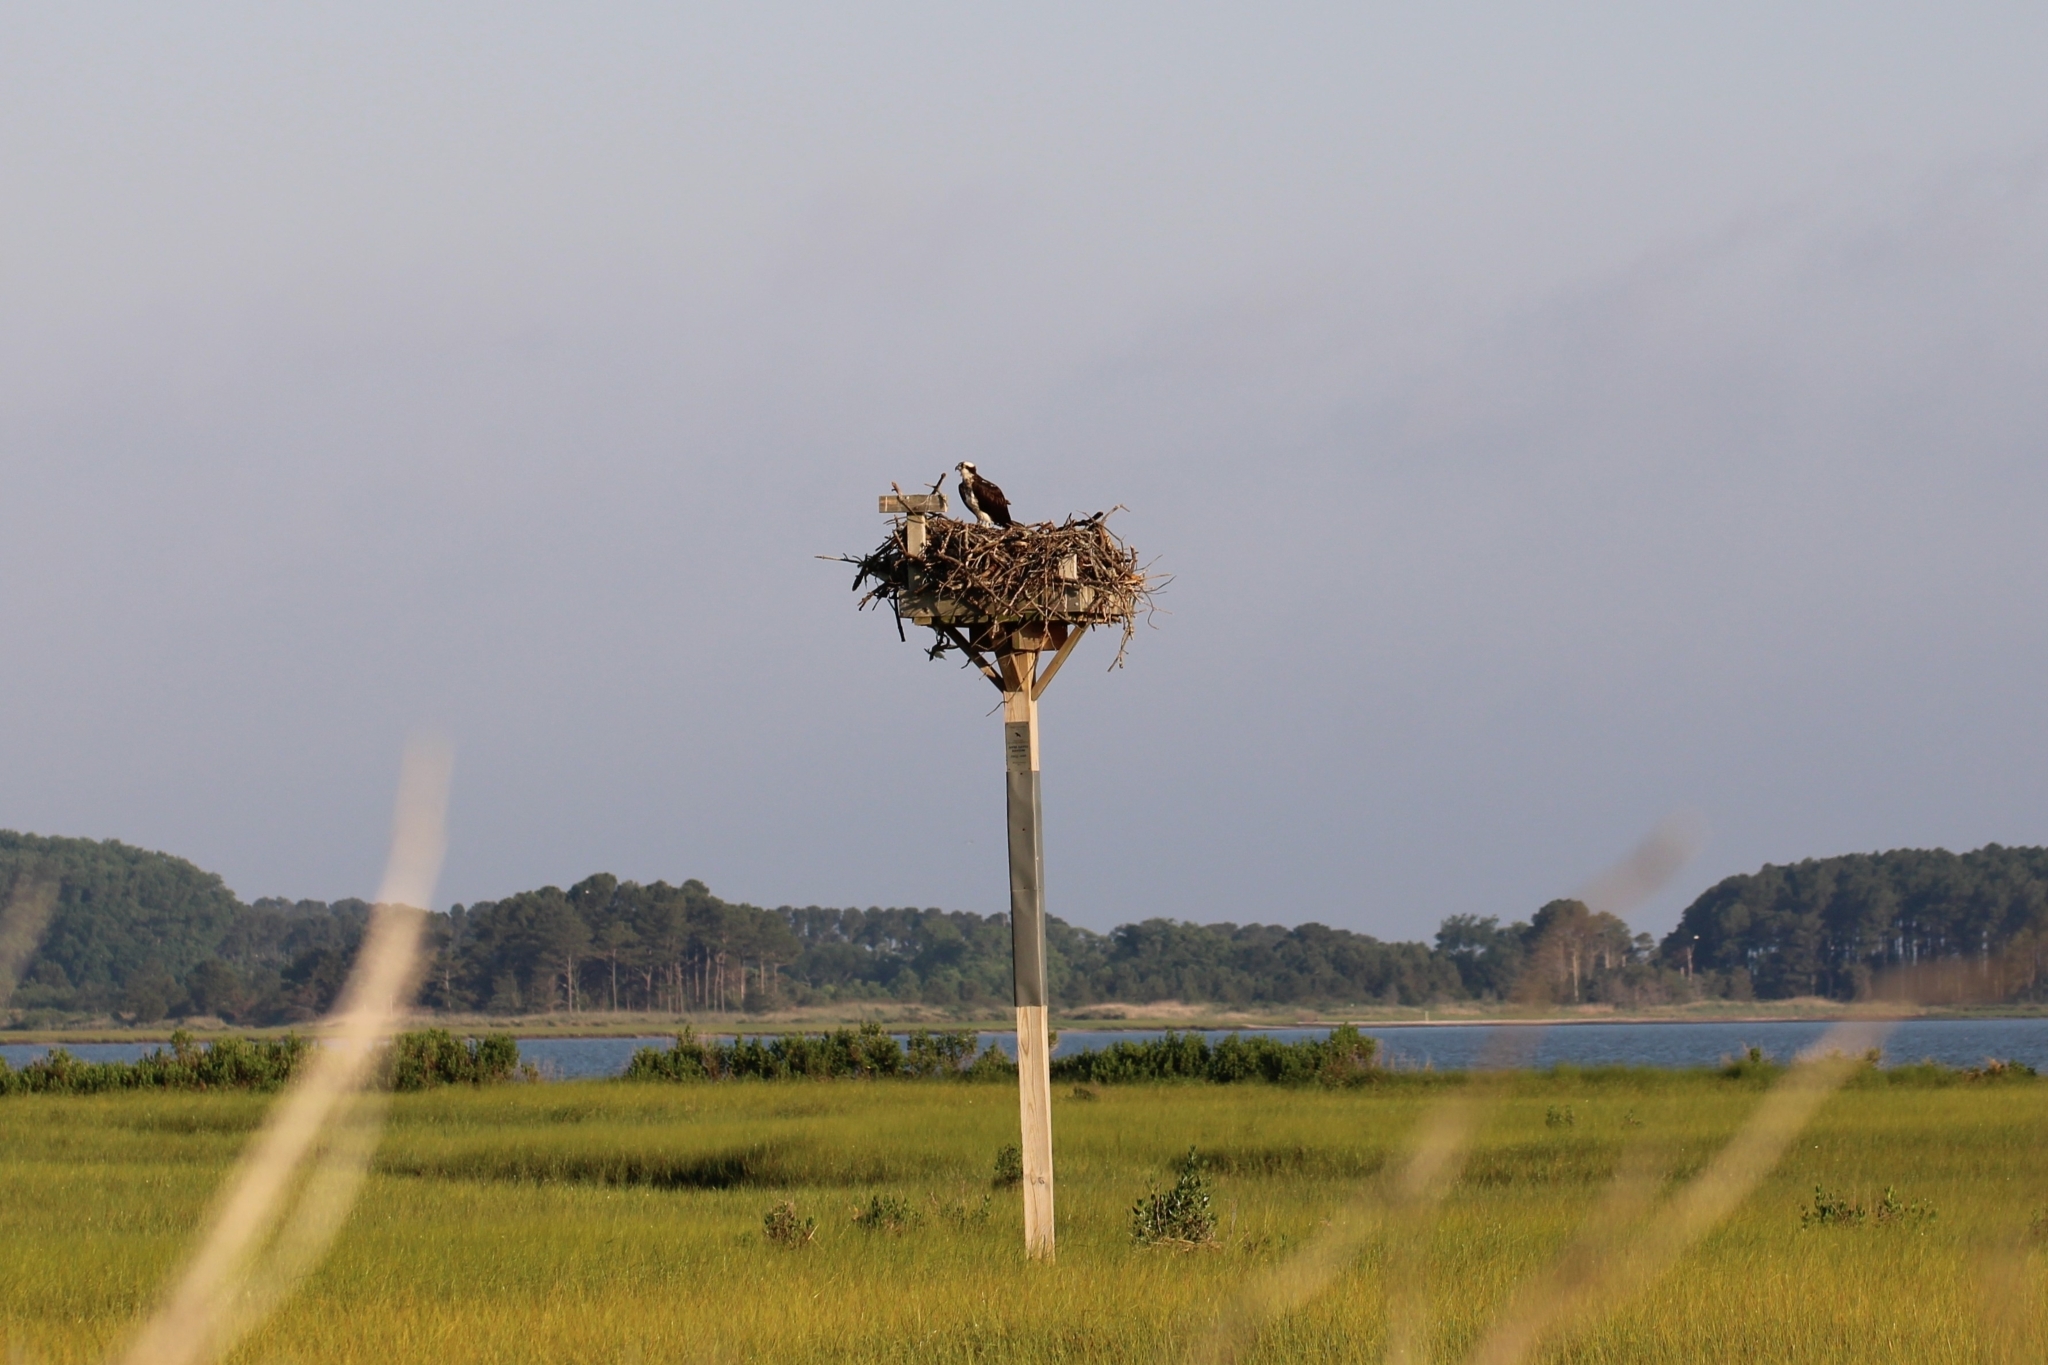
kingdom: Animalia
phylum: Chordata
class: Aves
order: Accipitriformes
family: Pandionidae
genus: Pandion
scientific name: Pandion haliaetus
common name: Osprey
